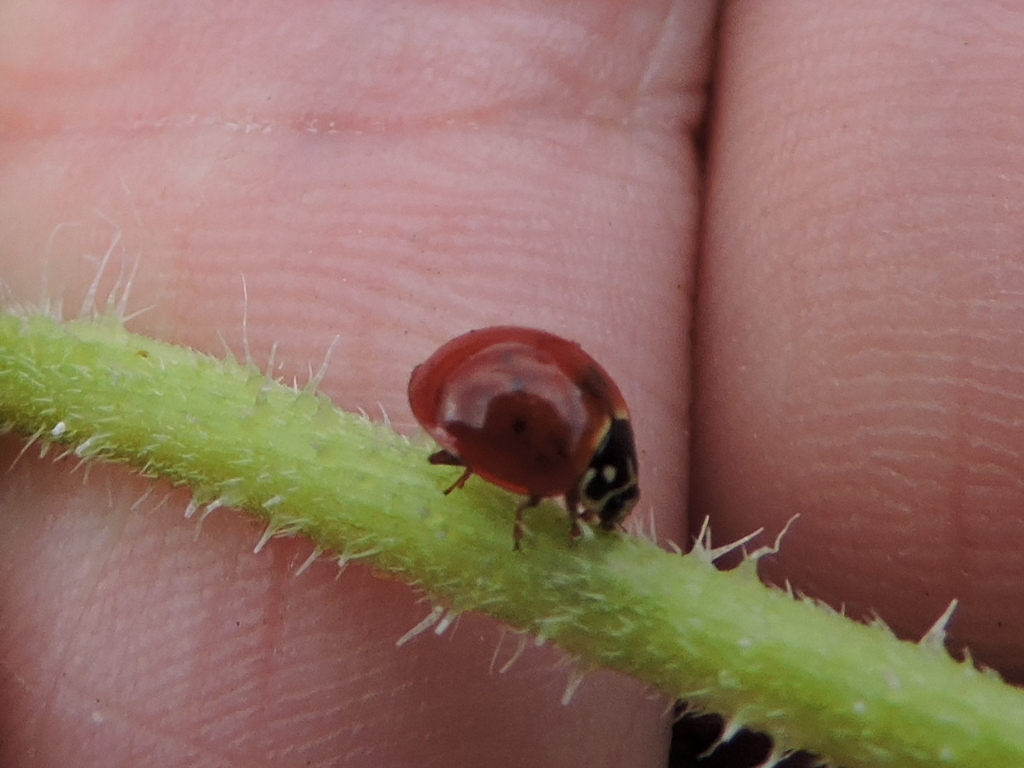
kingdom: Animalia
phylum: Arthropoda
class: Insecta
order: Coleoptera
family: Coccinellidae
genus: Cycloneda
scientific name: Cycloneda sanguinea
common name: Ladybird beetle
